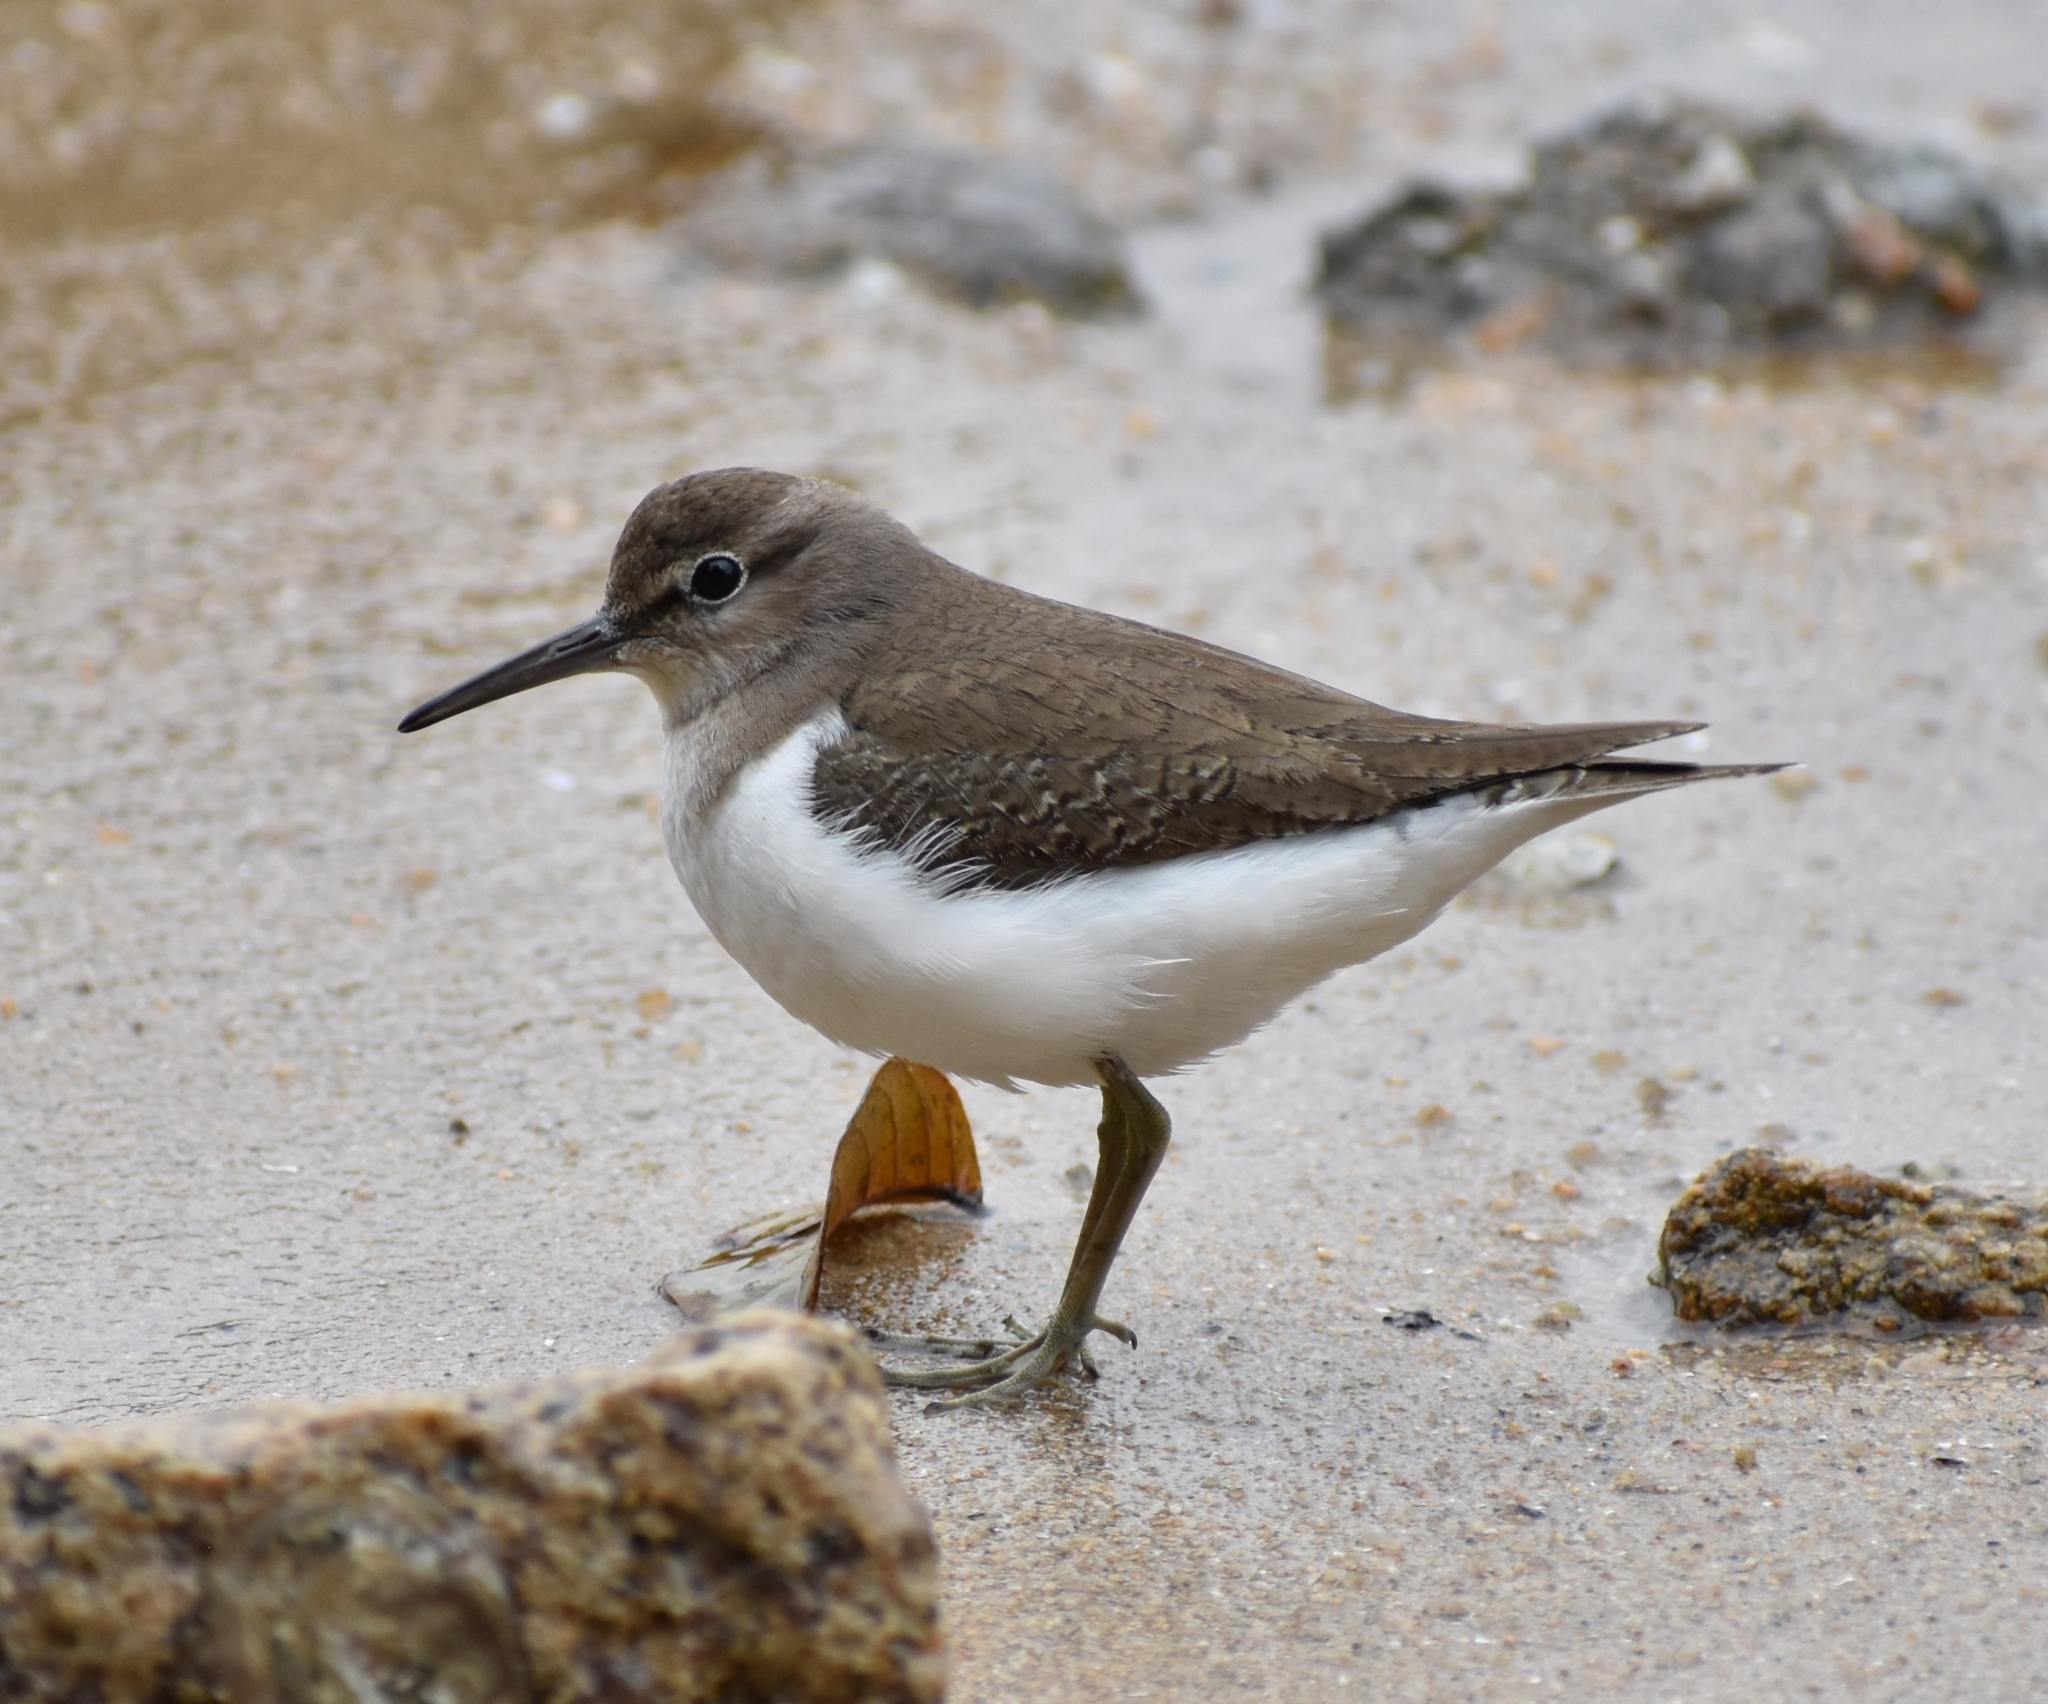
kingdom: Animalia
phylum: Chordata
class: Aves
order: Charadriiformes
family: Scolopacidae
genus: Actitis
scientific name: Actitis hypoleucos
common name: Common sandpiper
